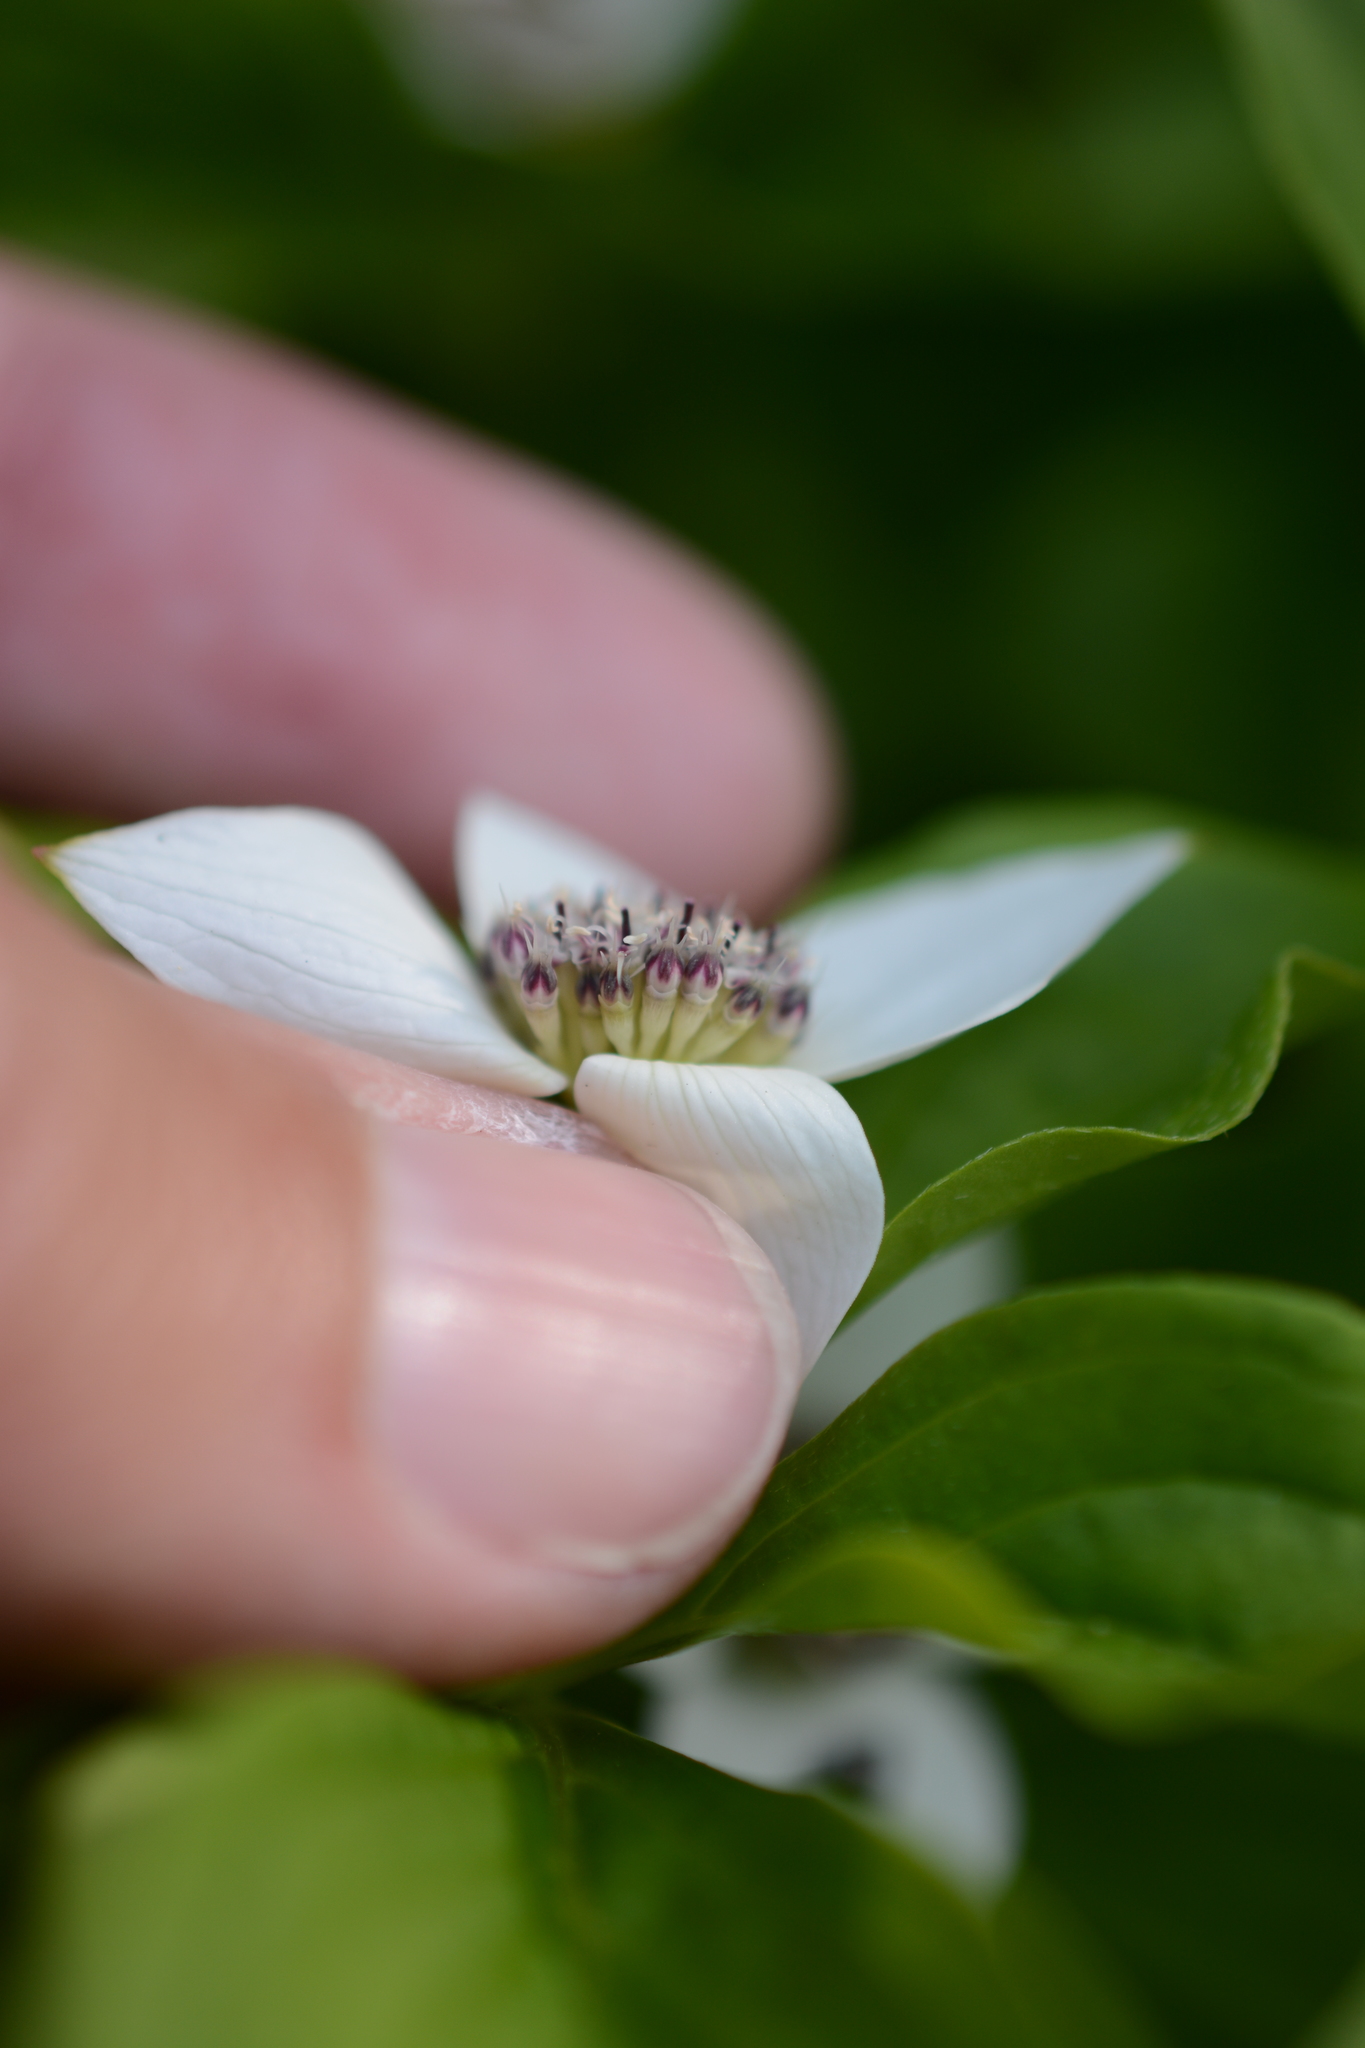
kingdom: Plantae
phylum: Tracheophyta
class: Magnoliopsida
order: Cornales
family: Cornaceae
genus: Cornus
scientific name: Cornus unalaschkensis
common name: Alaska bunchberry
